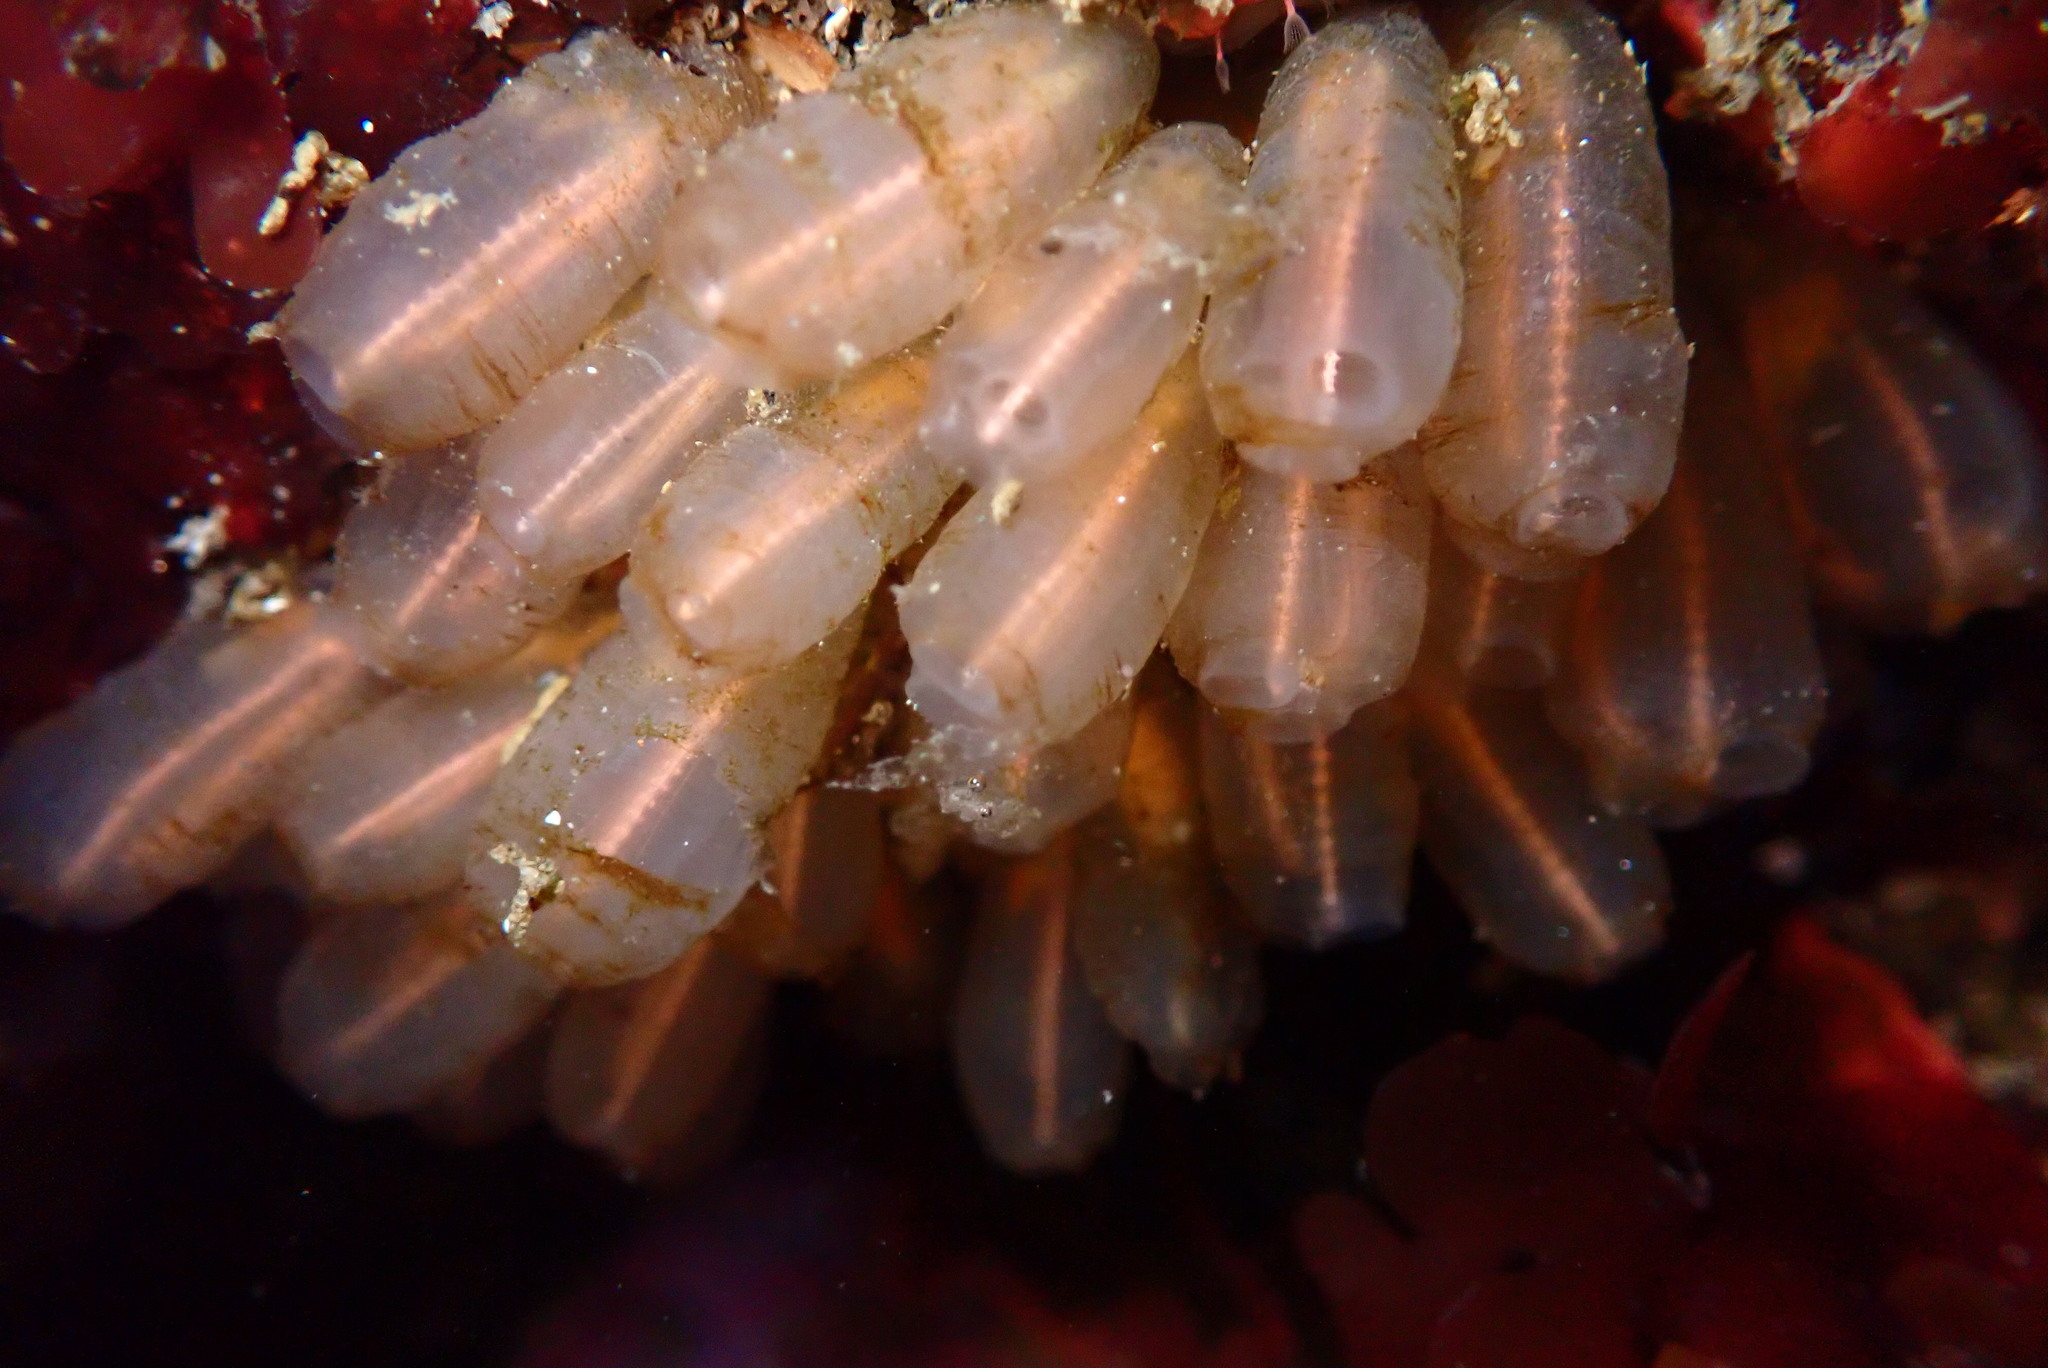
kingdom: Animalia
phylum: Chordata
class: Ascidiacea
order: Aplousobranchia
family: Clavelinidae
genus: Clavelina
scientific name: Clavelina huntsmani
